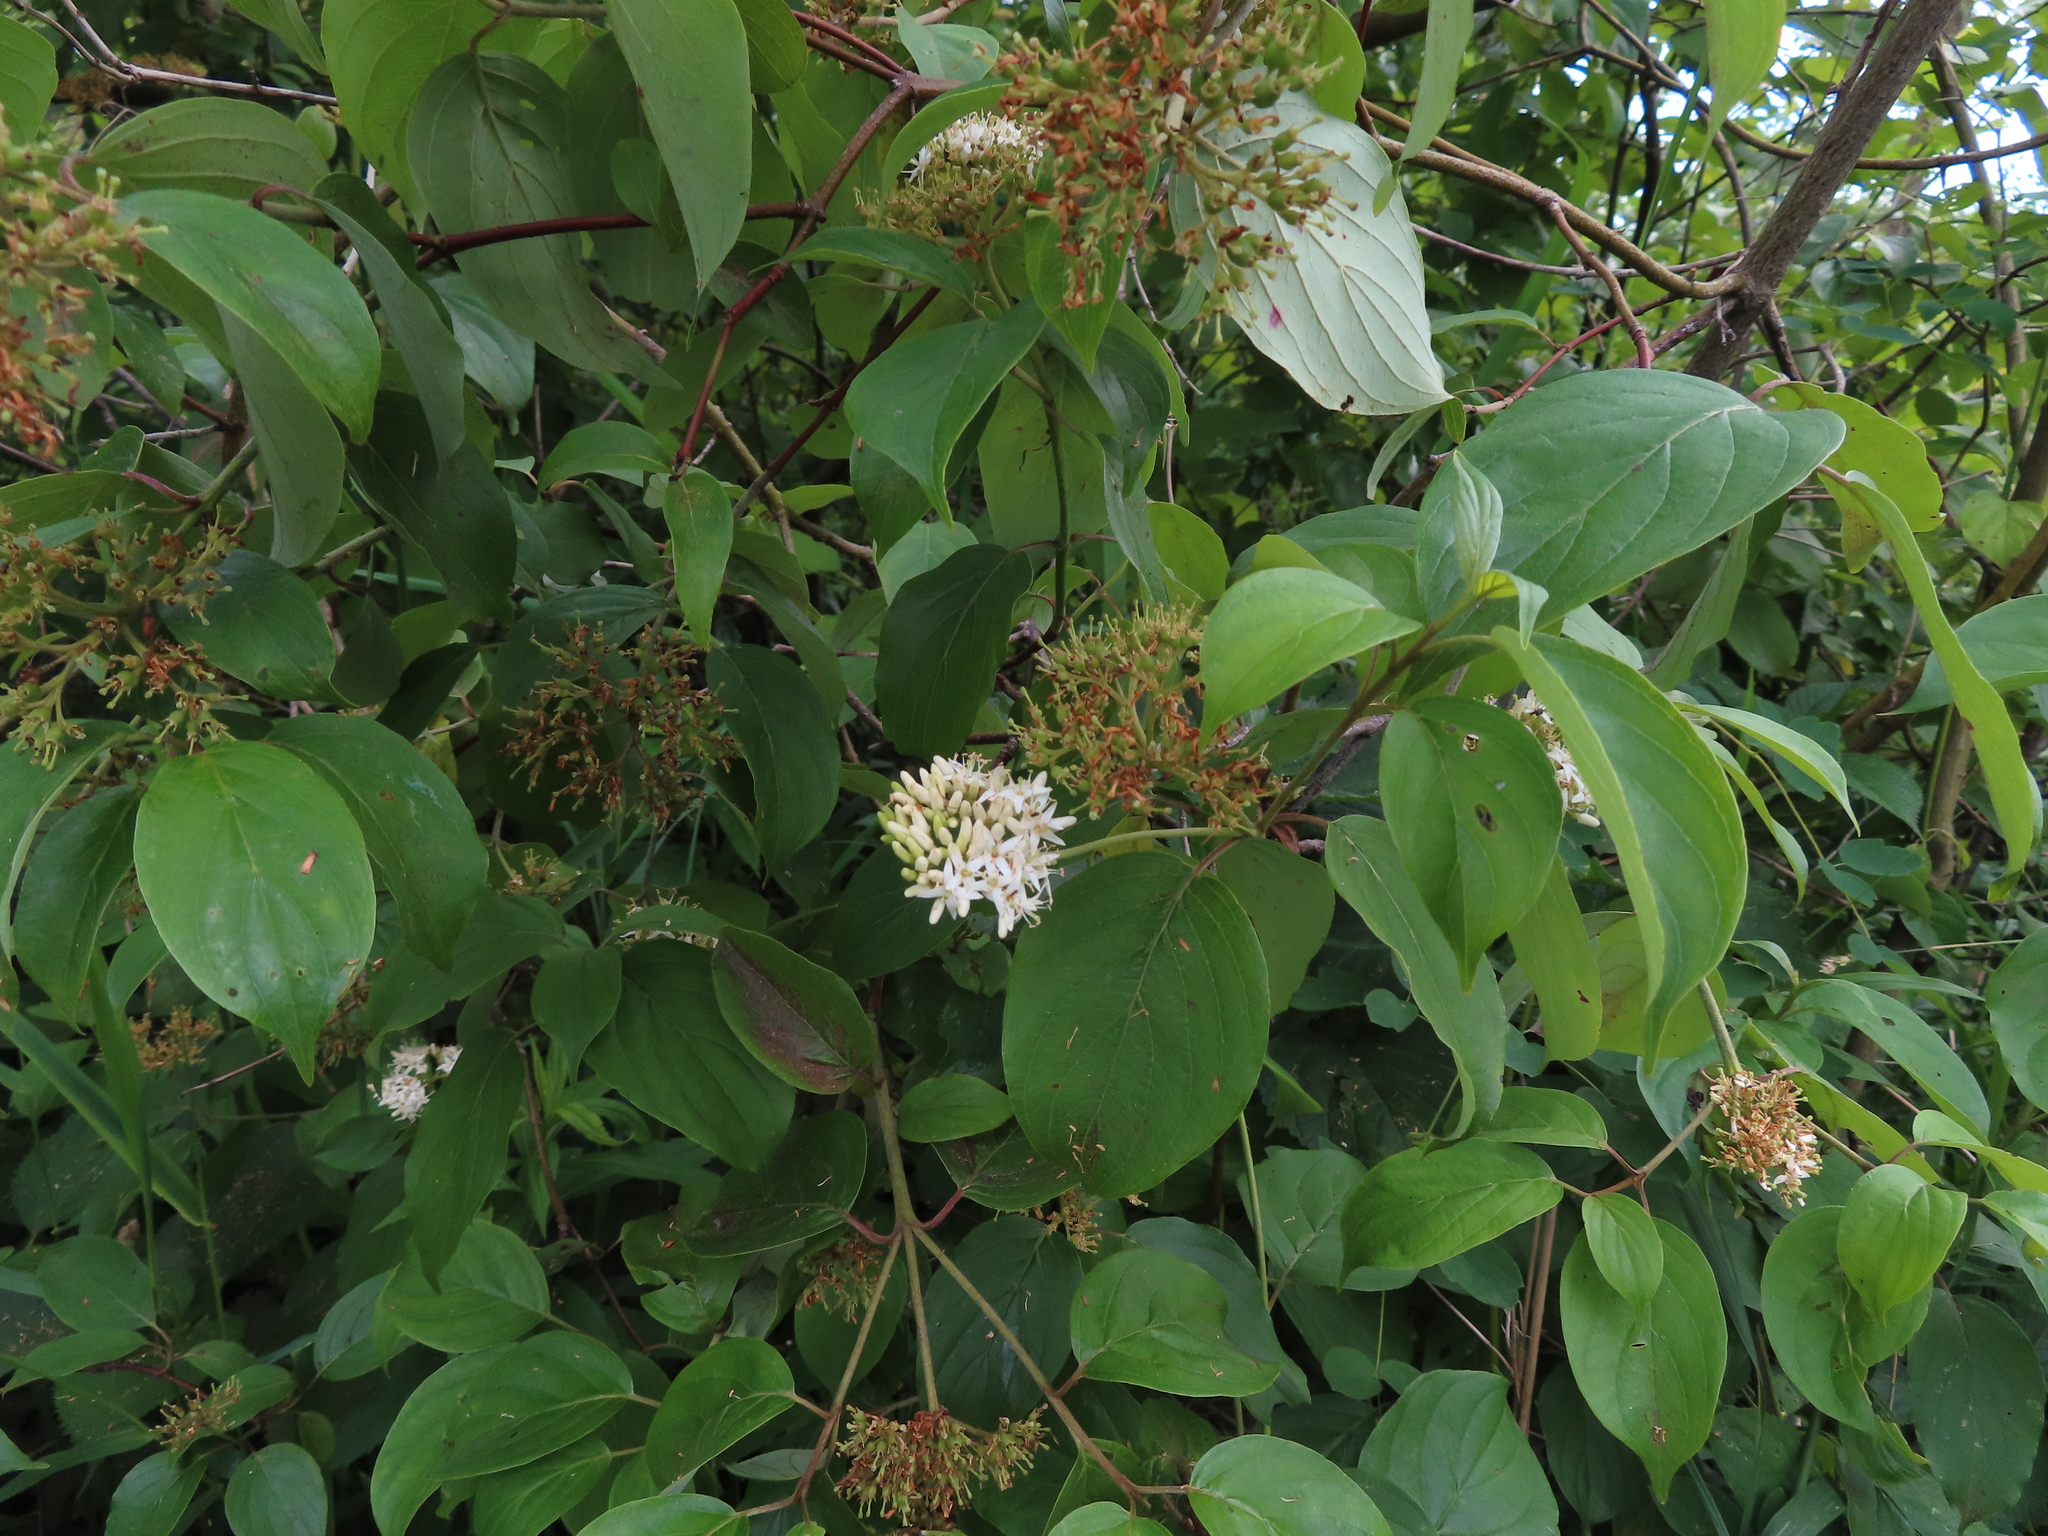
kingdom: Plantae
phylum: Tracheophyta
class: Magnoliopsida
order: Cornales
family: Cornaceae
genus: Cornus
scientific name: Cornus amomum
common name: Silky dogwood
